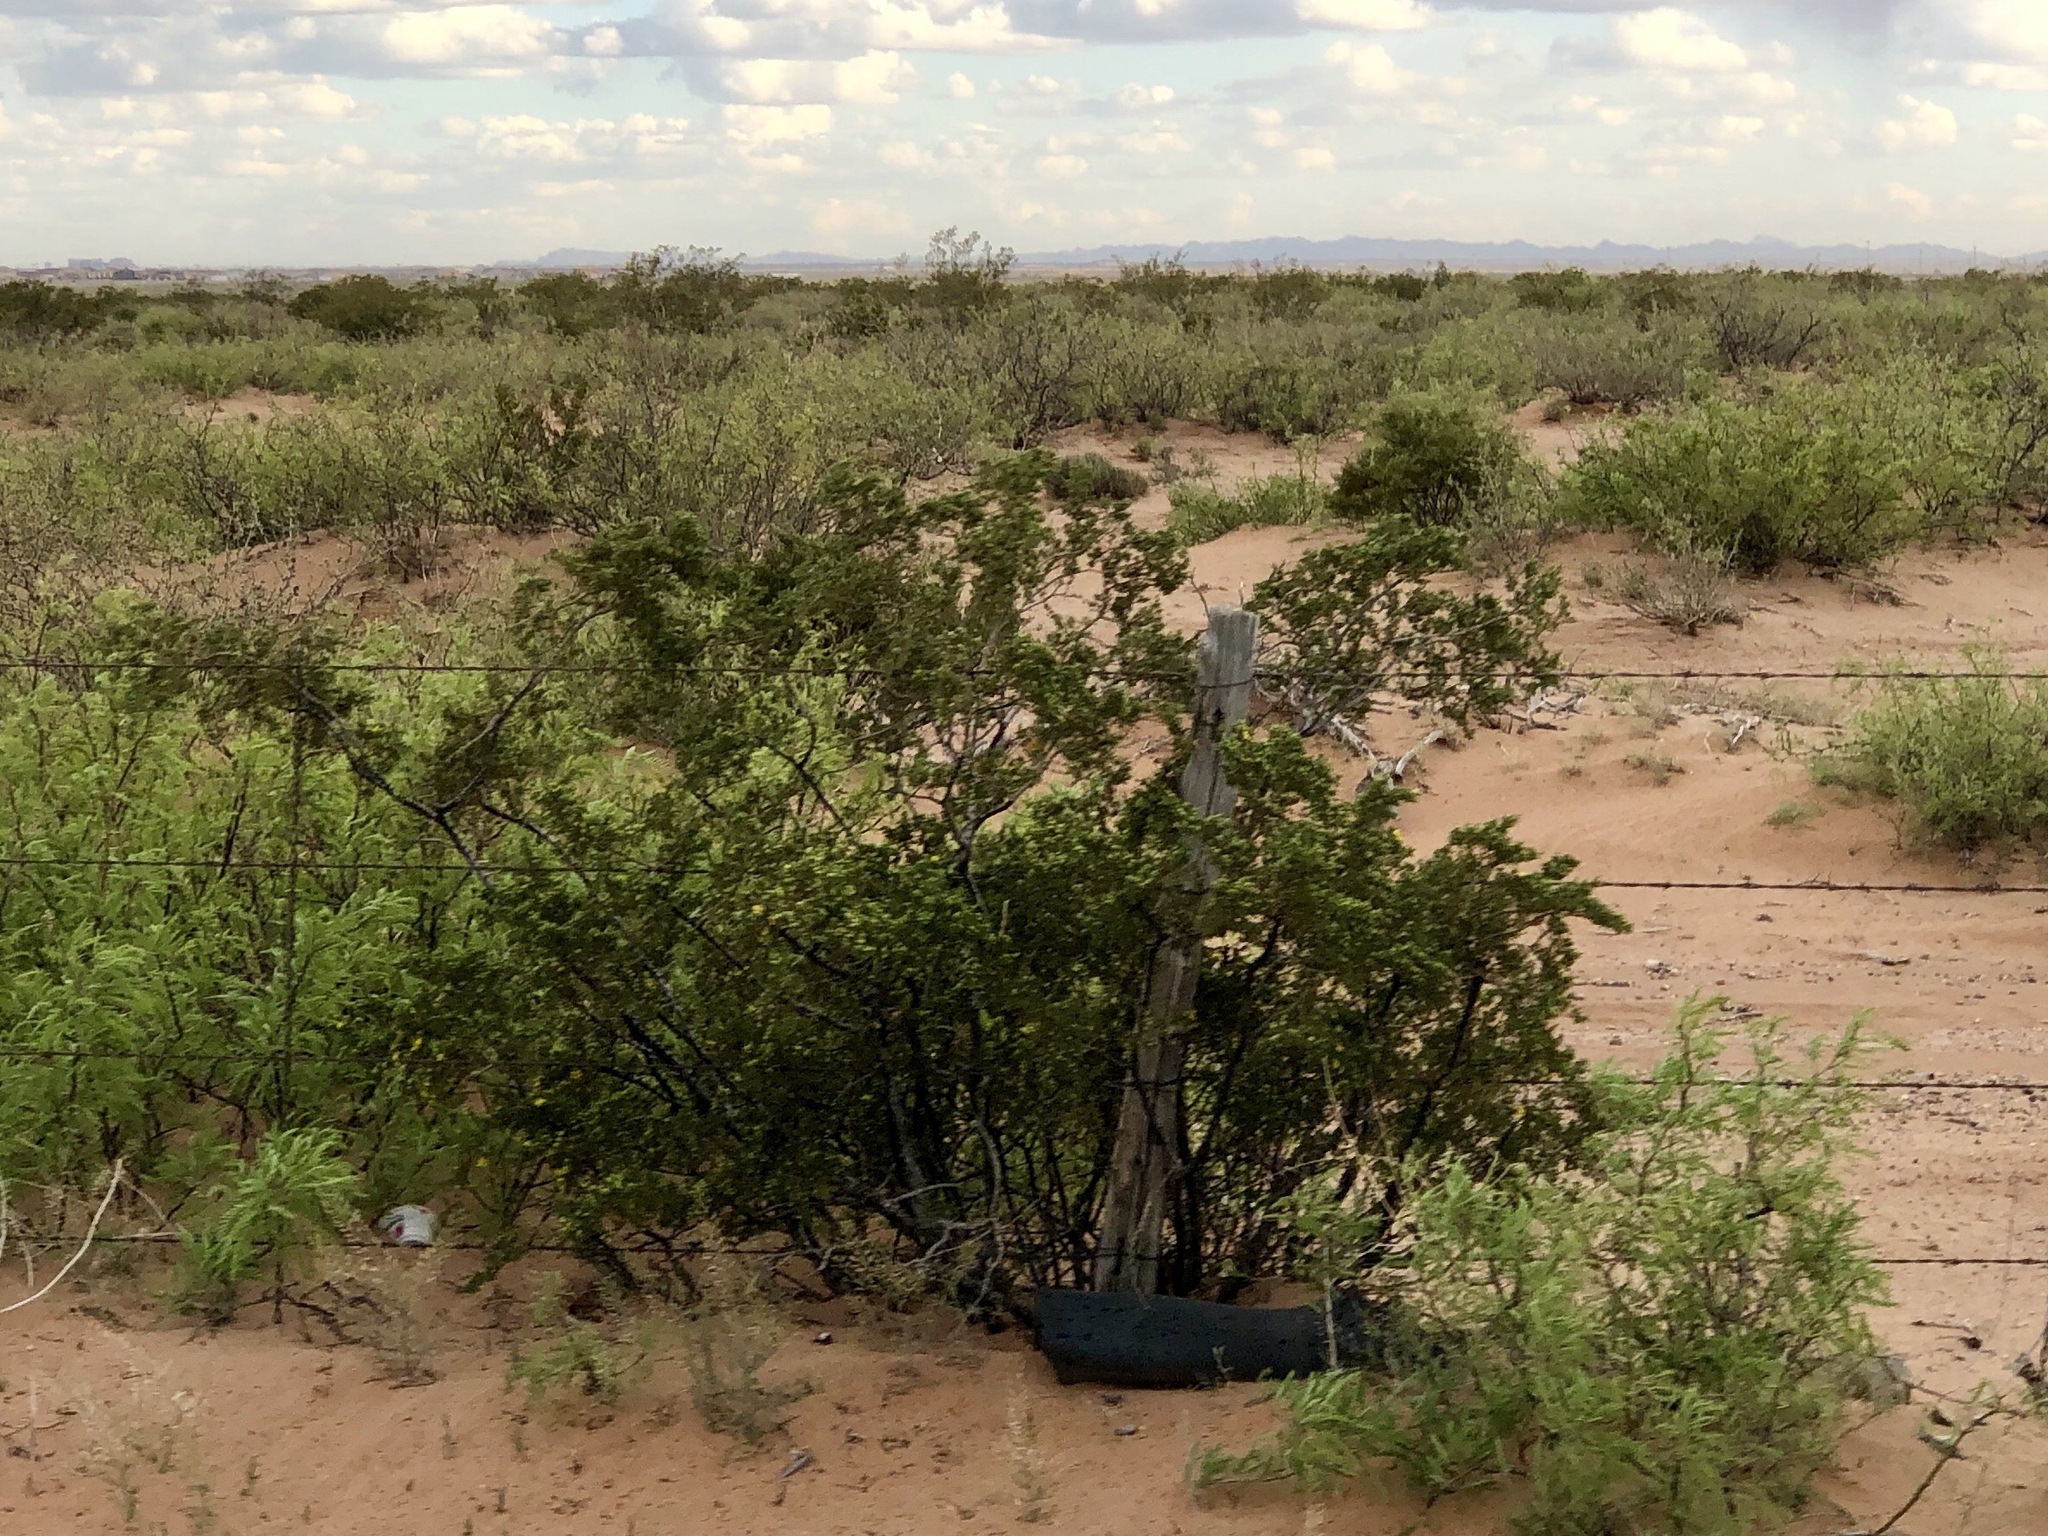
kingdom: Plantae
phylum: Tracheophyta
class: Magnoliopsida
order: Zygophyllales
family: Zygophyllaceae
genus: Larrea
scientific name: Larrea tridentata
